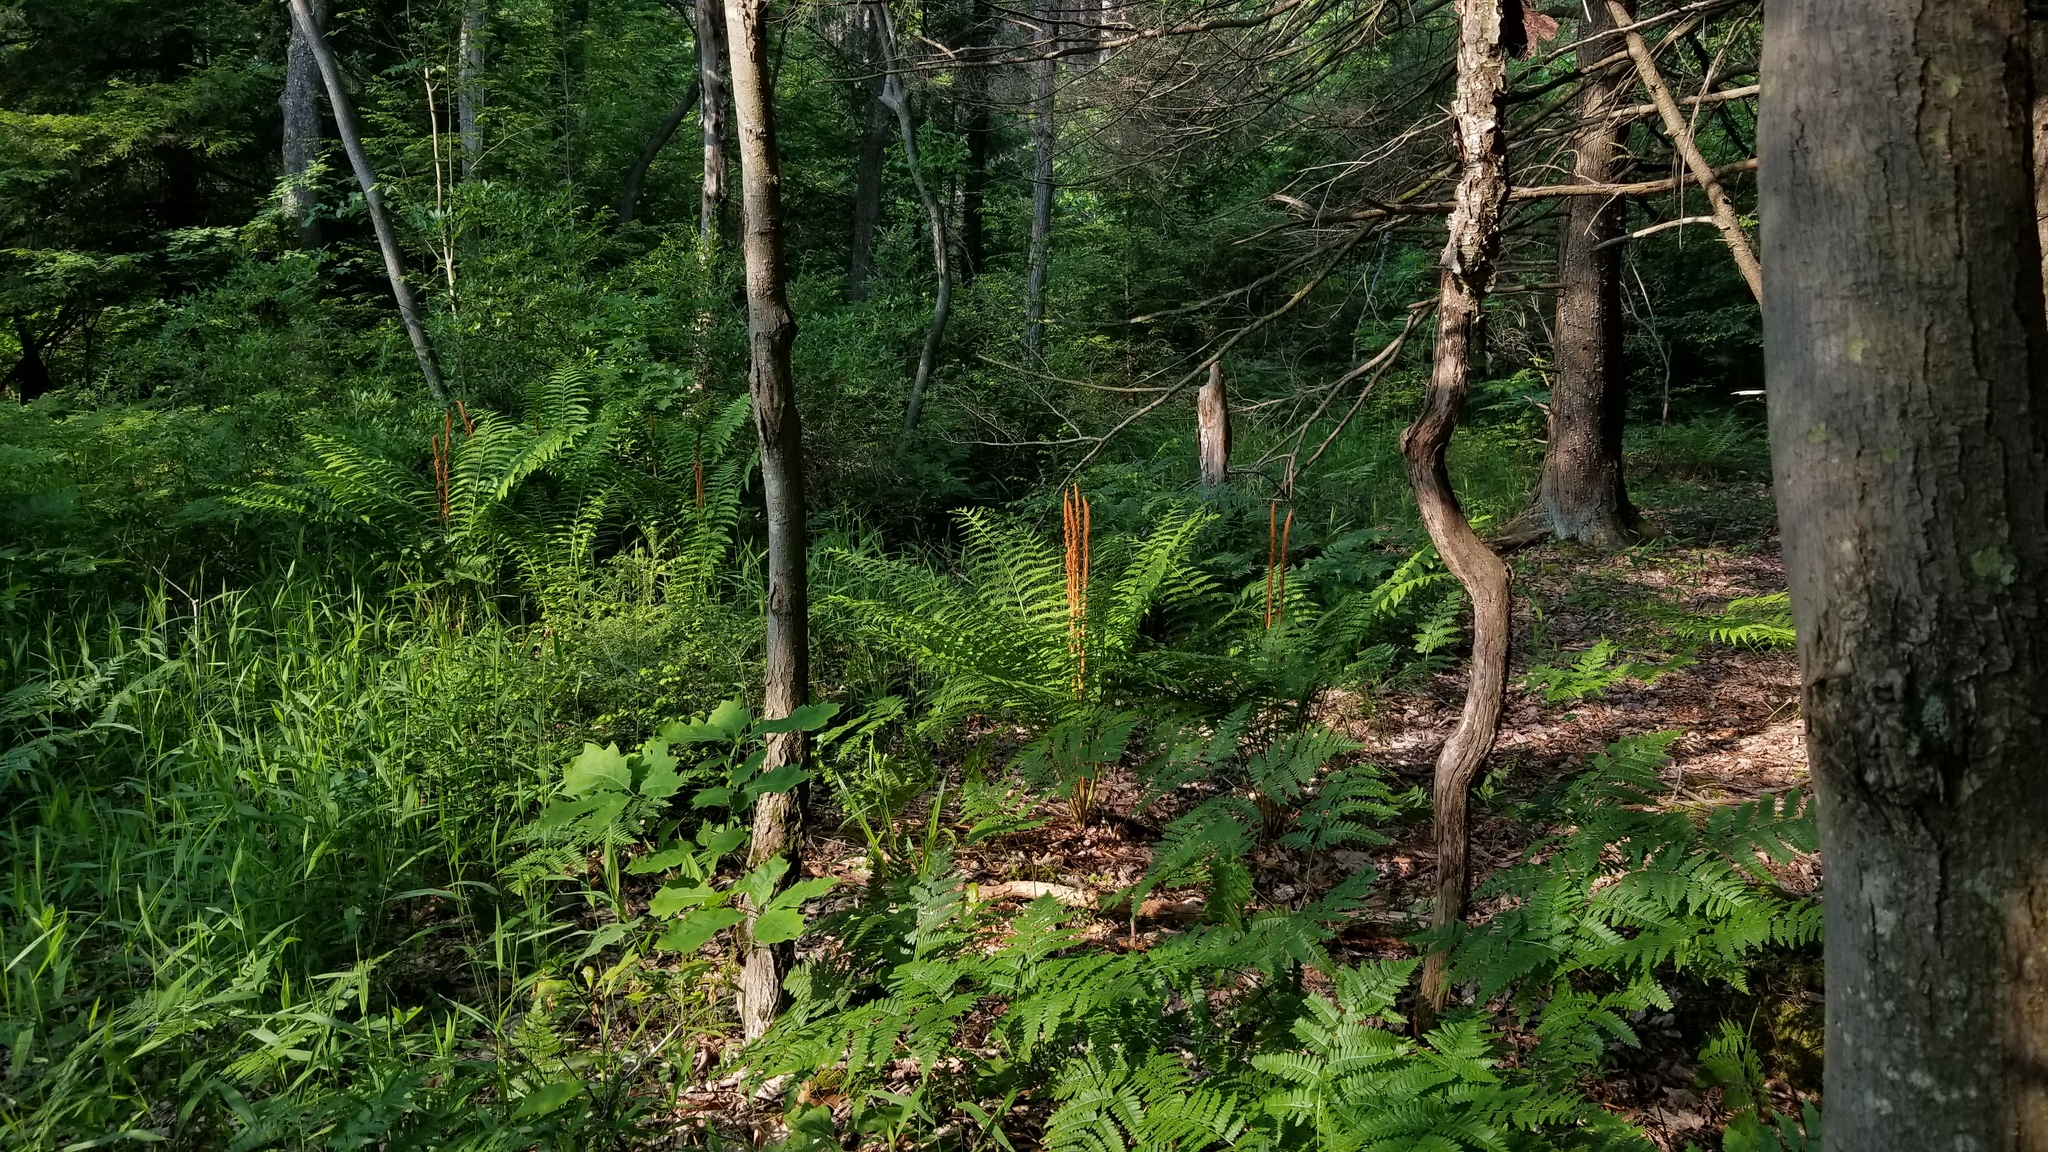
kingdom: Plantae
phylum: Tracheophyta
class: Polypodiopsida
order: Osmundales
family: Osmundaceae
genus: Osmundastrum
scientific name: Osmundastrum cinnamomeum
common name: Cinnamon fern
